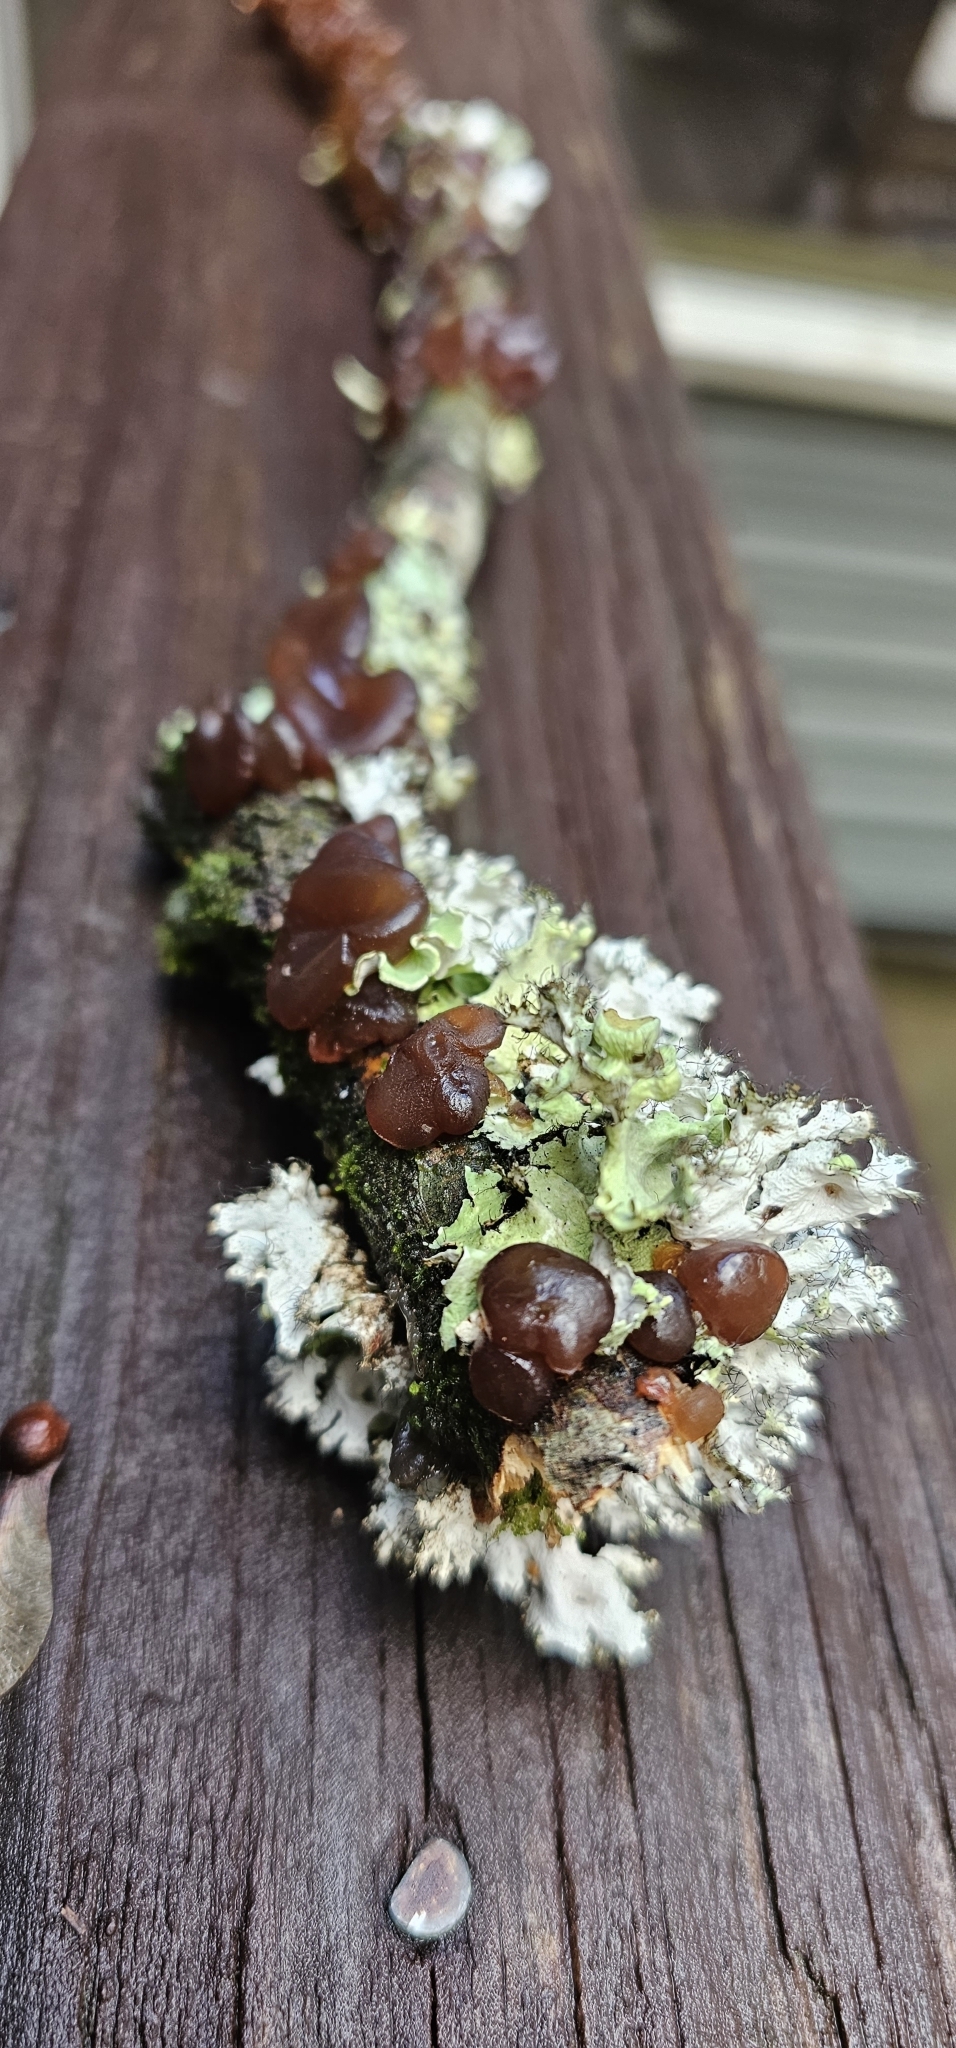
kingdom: Fungi
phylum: Basidiomycota
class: Agaricomycetes
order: Auriculariales
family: Auriculariaceae
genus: Exidia
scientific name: Exidia
